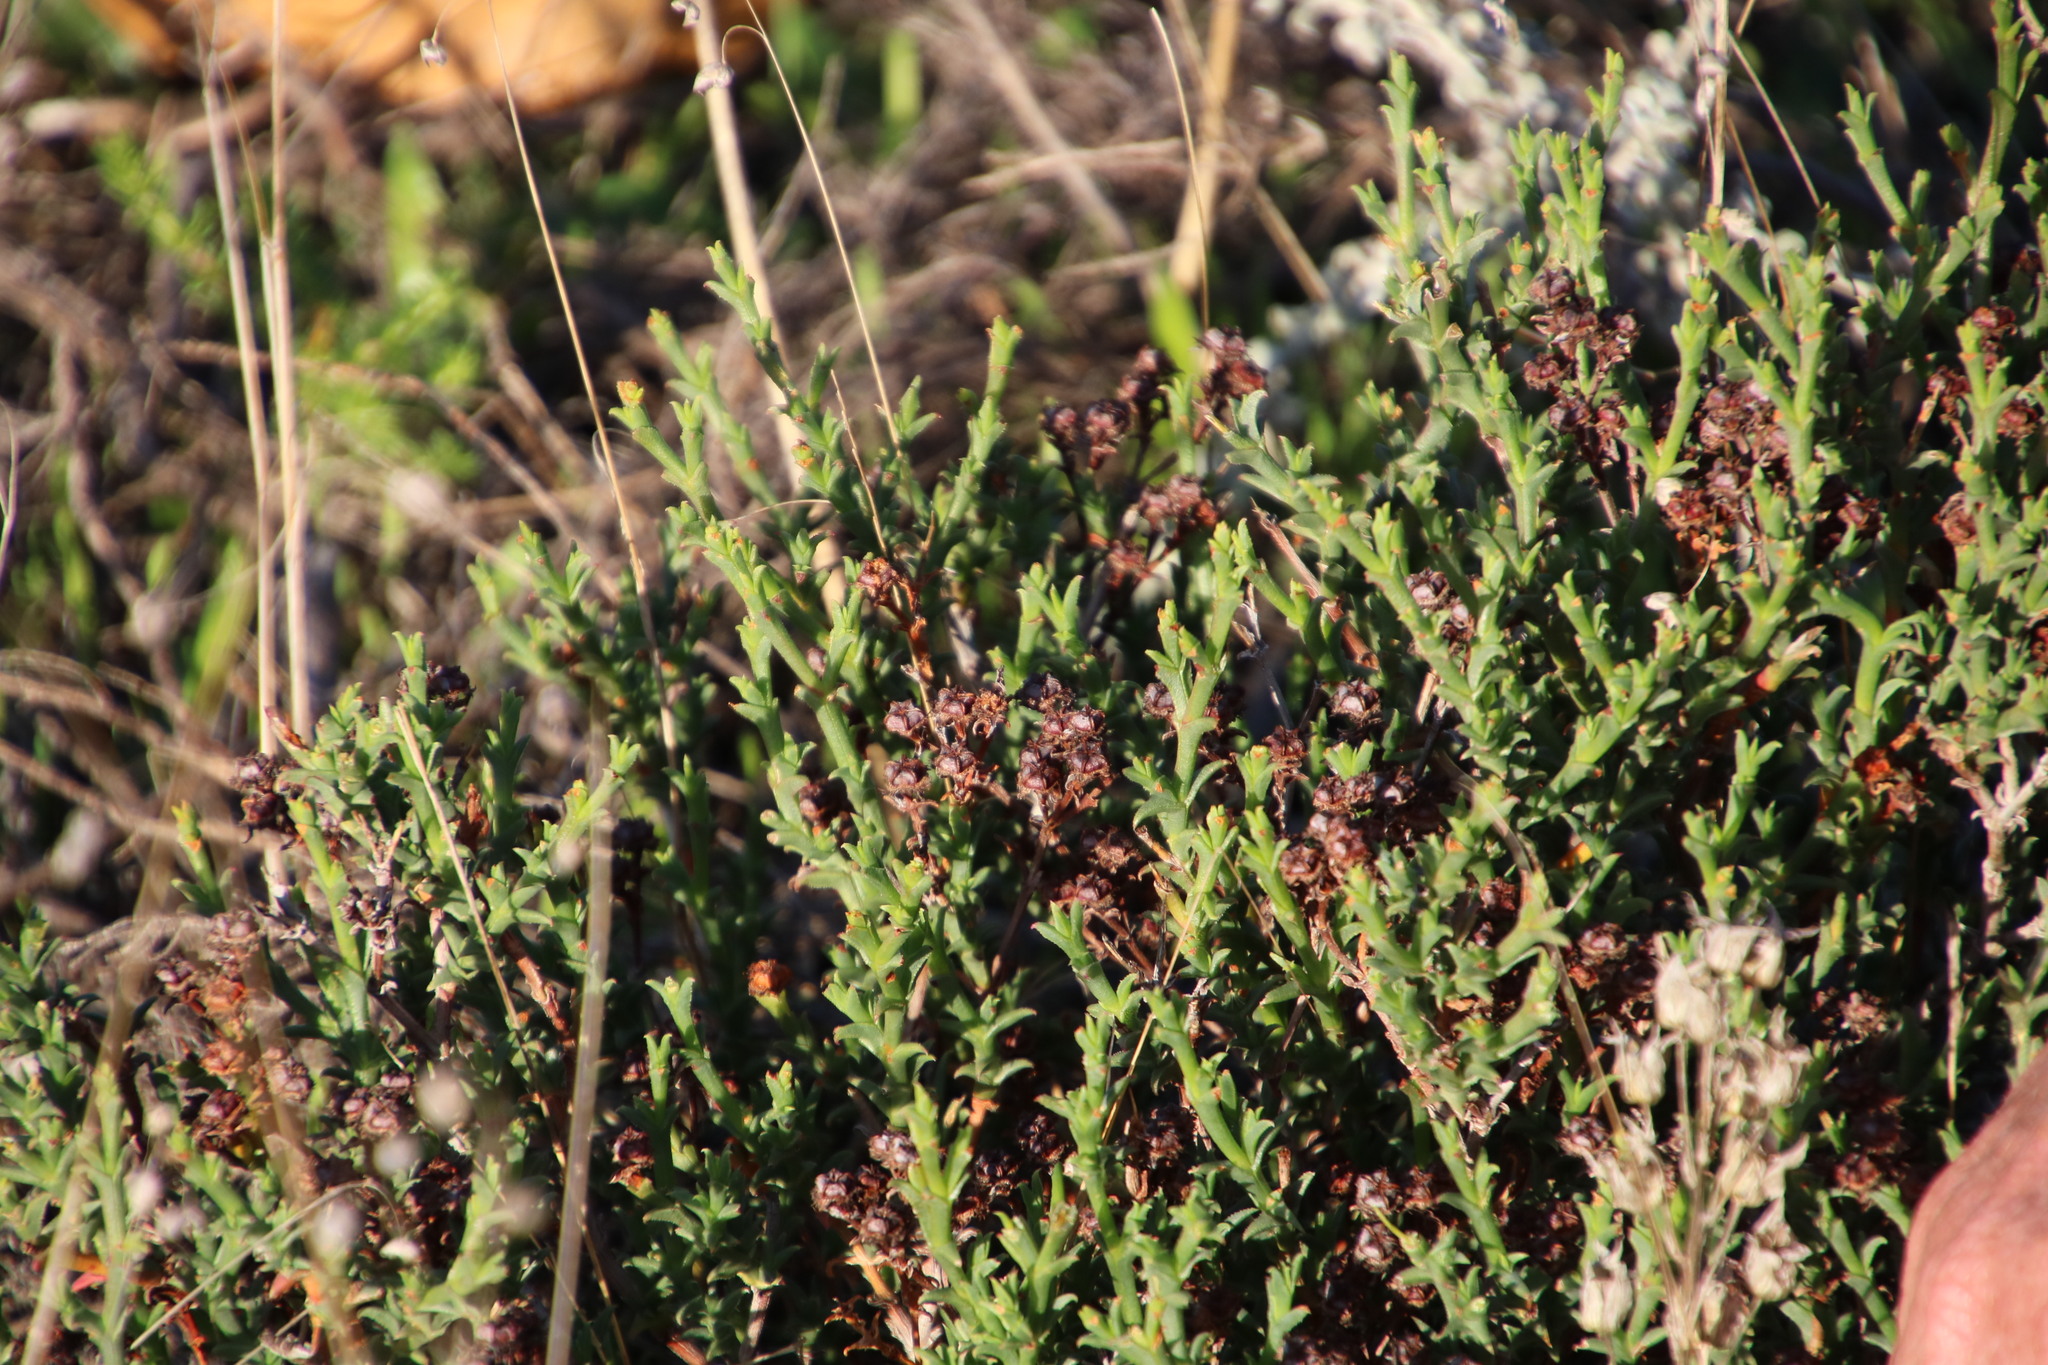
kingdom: Plantae
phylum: Tracheophyta
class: Magnoliopsida
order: Caryophyllales
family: Aizoaceae
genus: Ruschia
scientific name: Ruschia tenella
